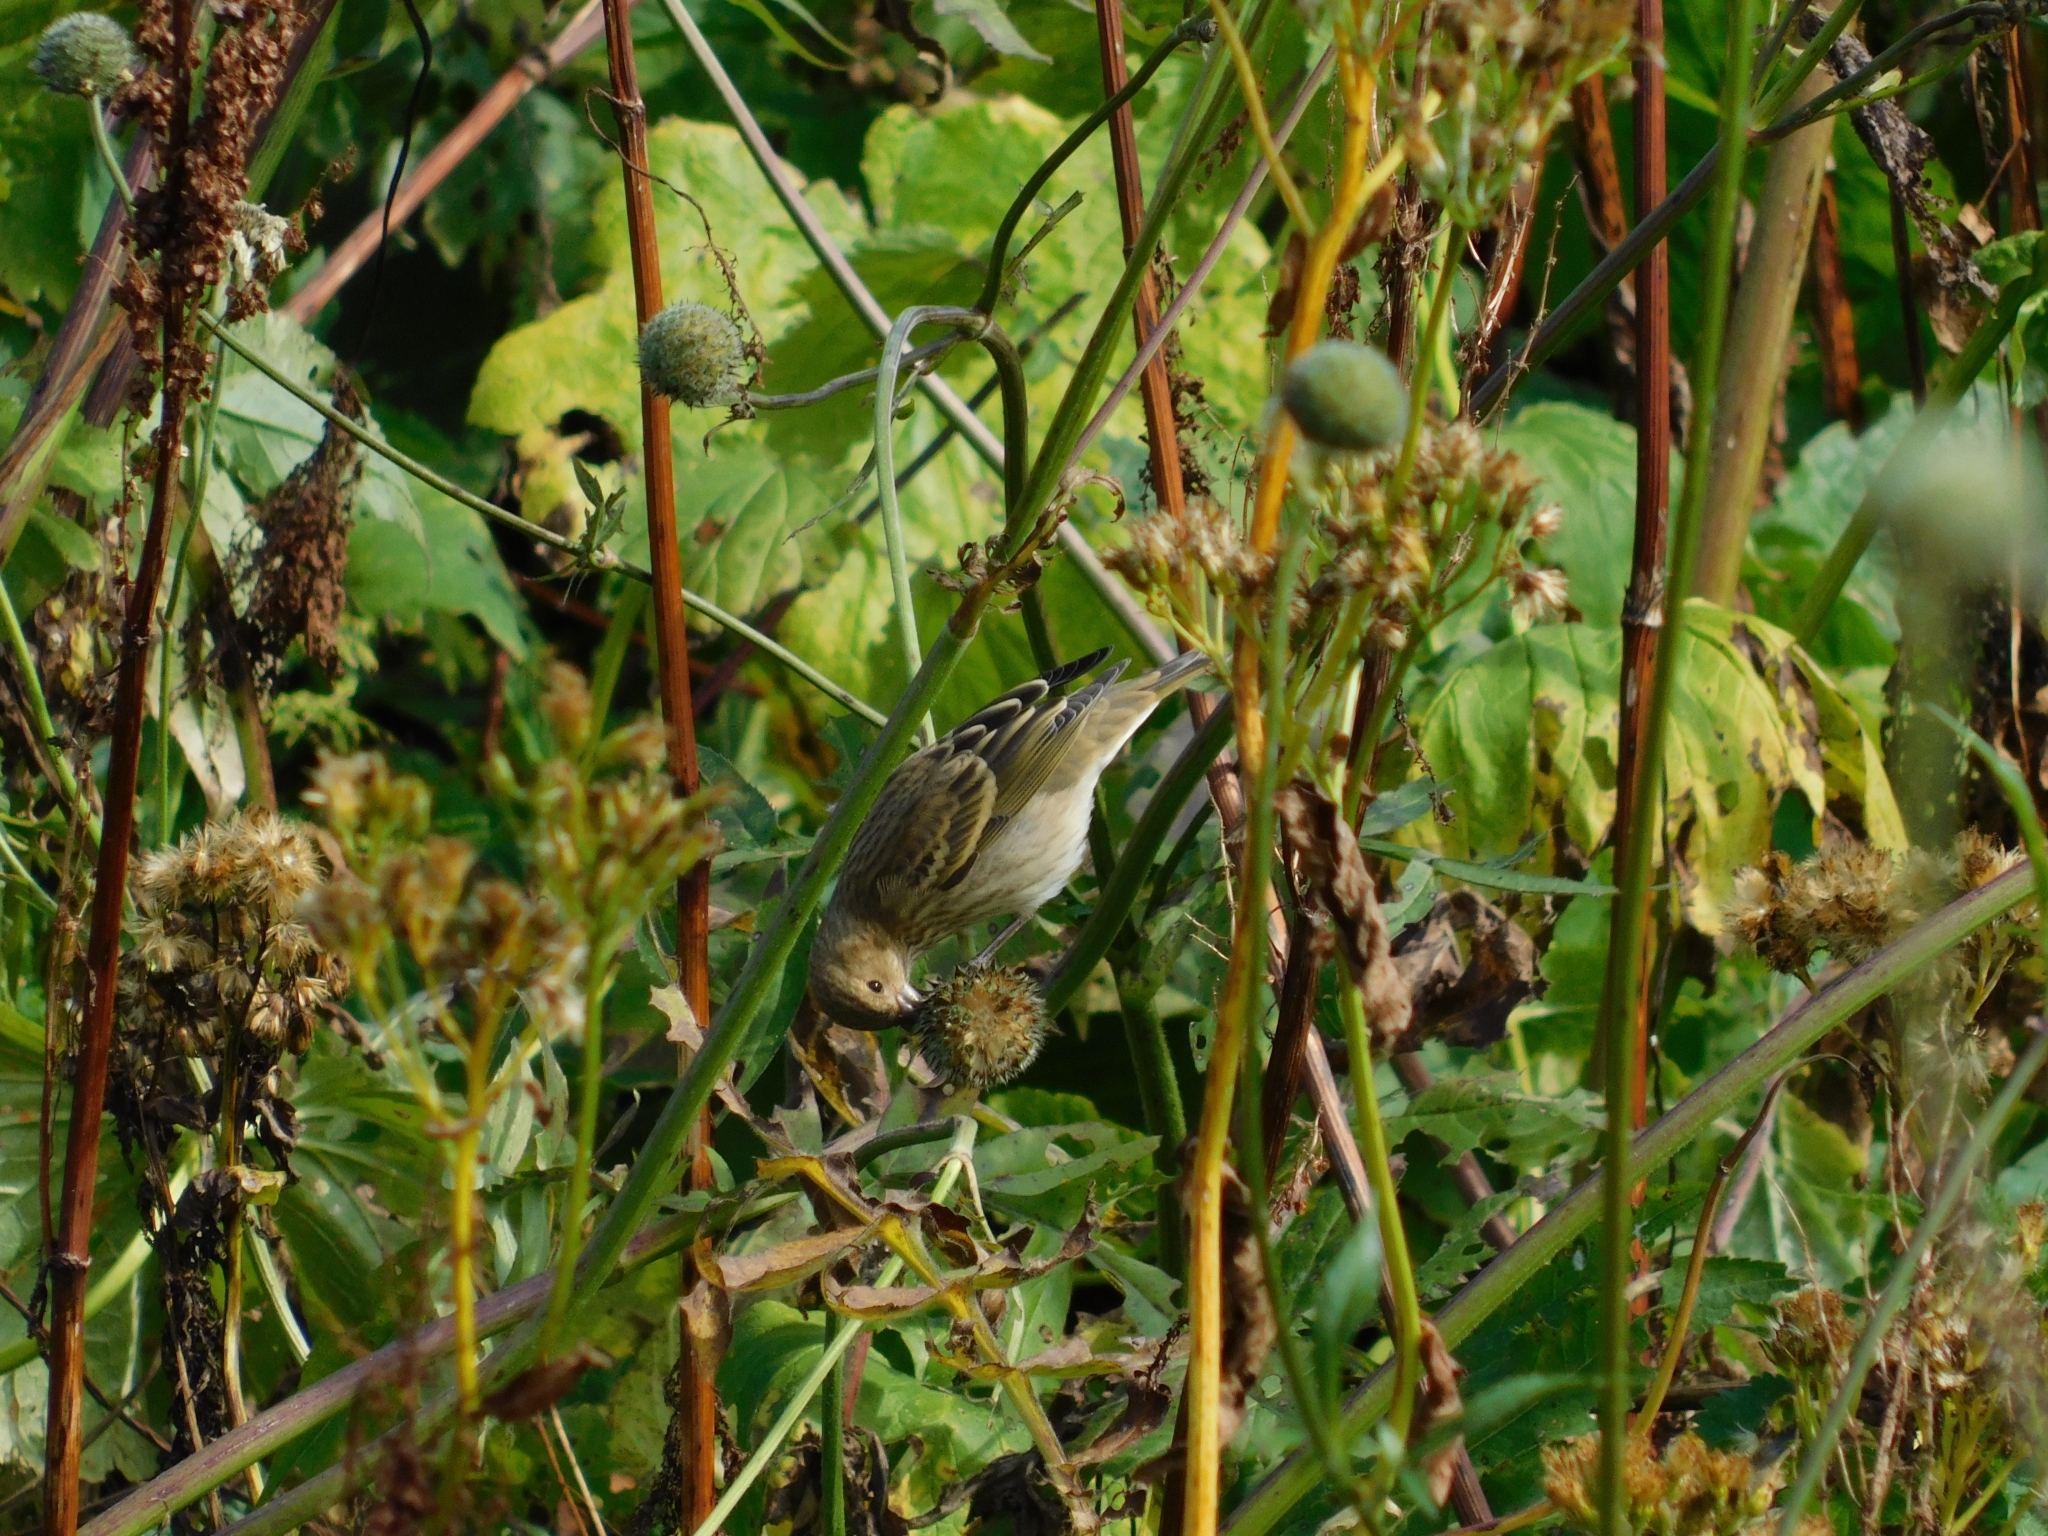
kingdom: Animalia
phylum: Chordata
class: Aves
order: Passeriformes
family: Fringillidae
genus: Carpodacus
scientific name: Carpodacus erythrinus
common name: Common rosefinch
